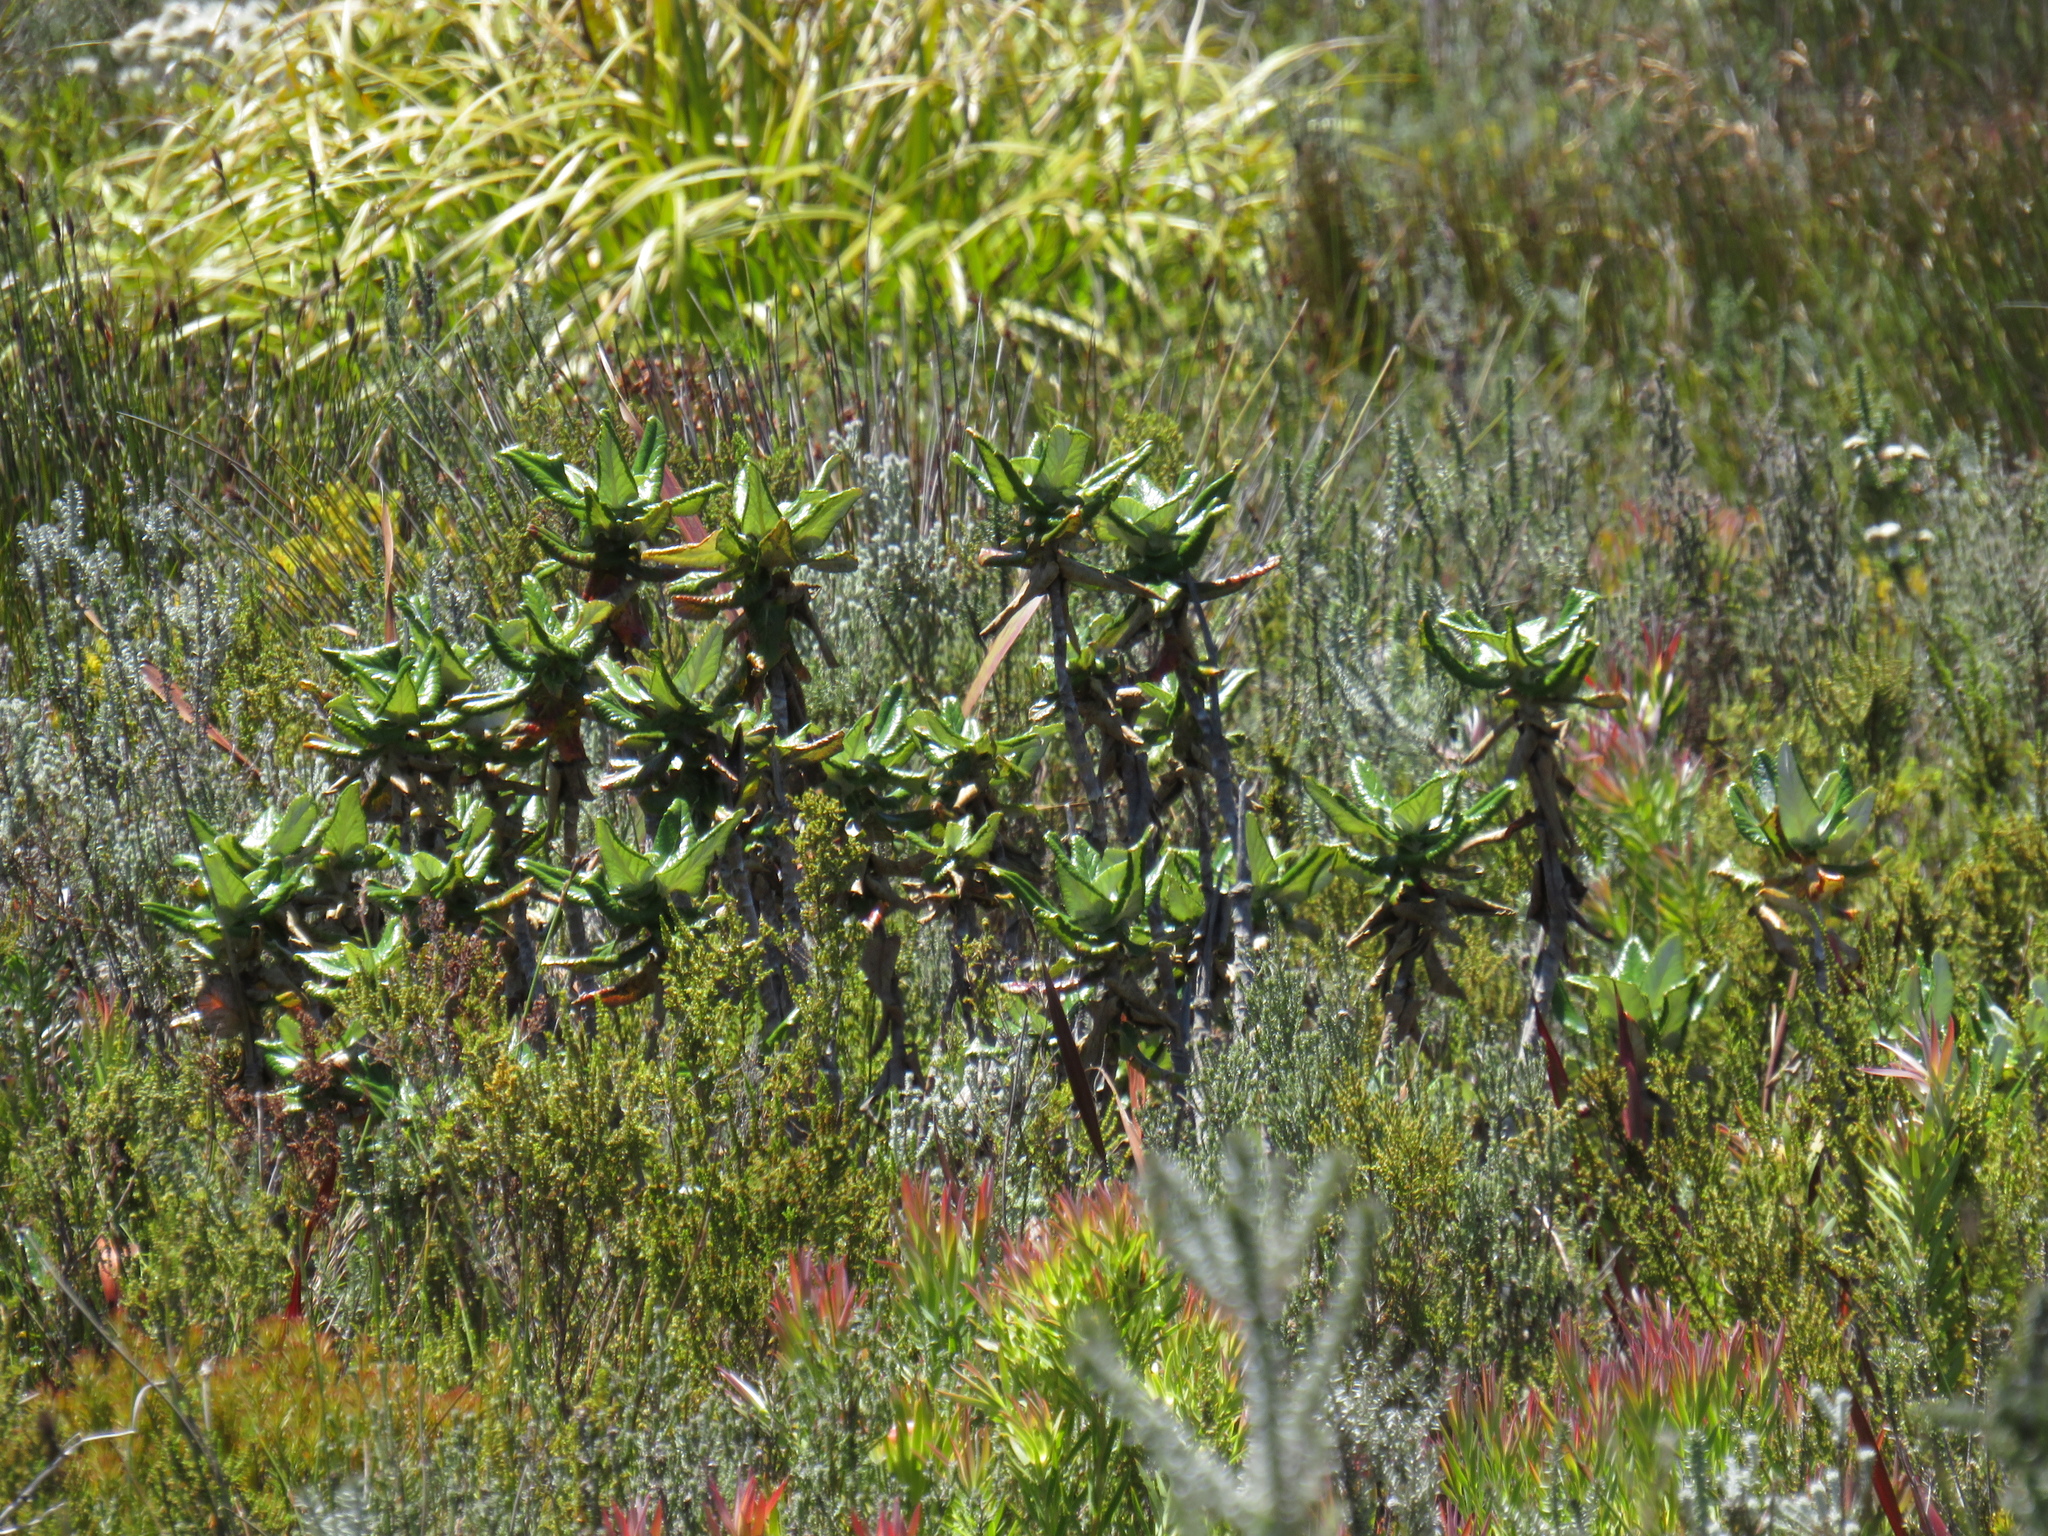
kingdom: Plantae
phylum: Tracheophyta
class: Magnoliopsida
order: Apiales
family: Apiaceae
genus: Hermas
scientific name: Hermas villosa
